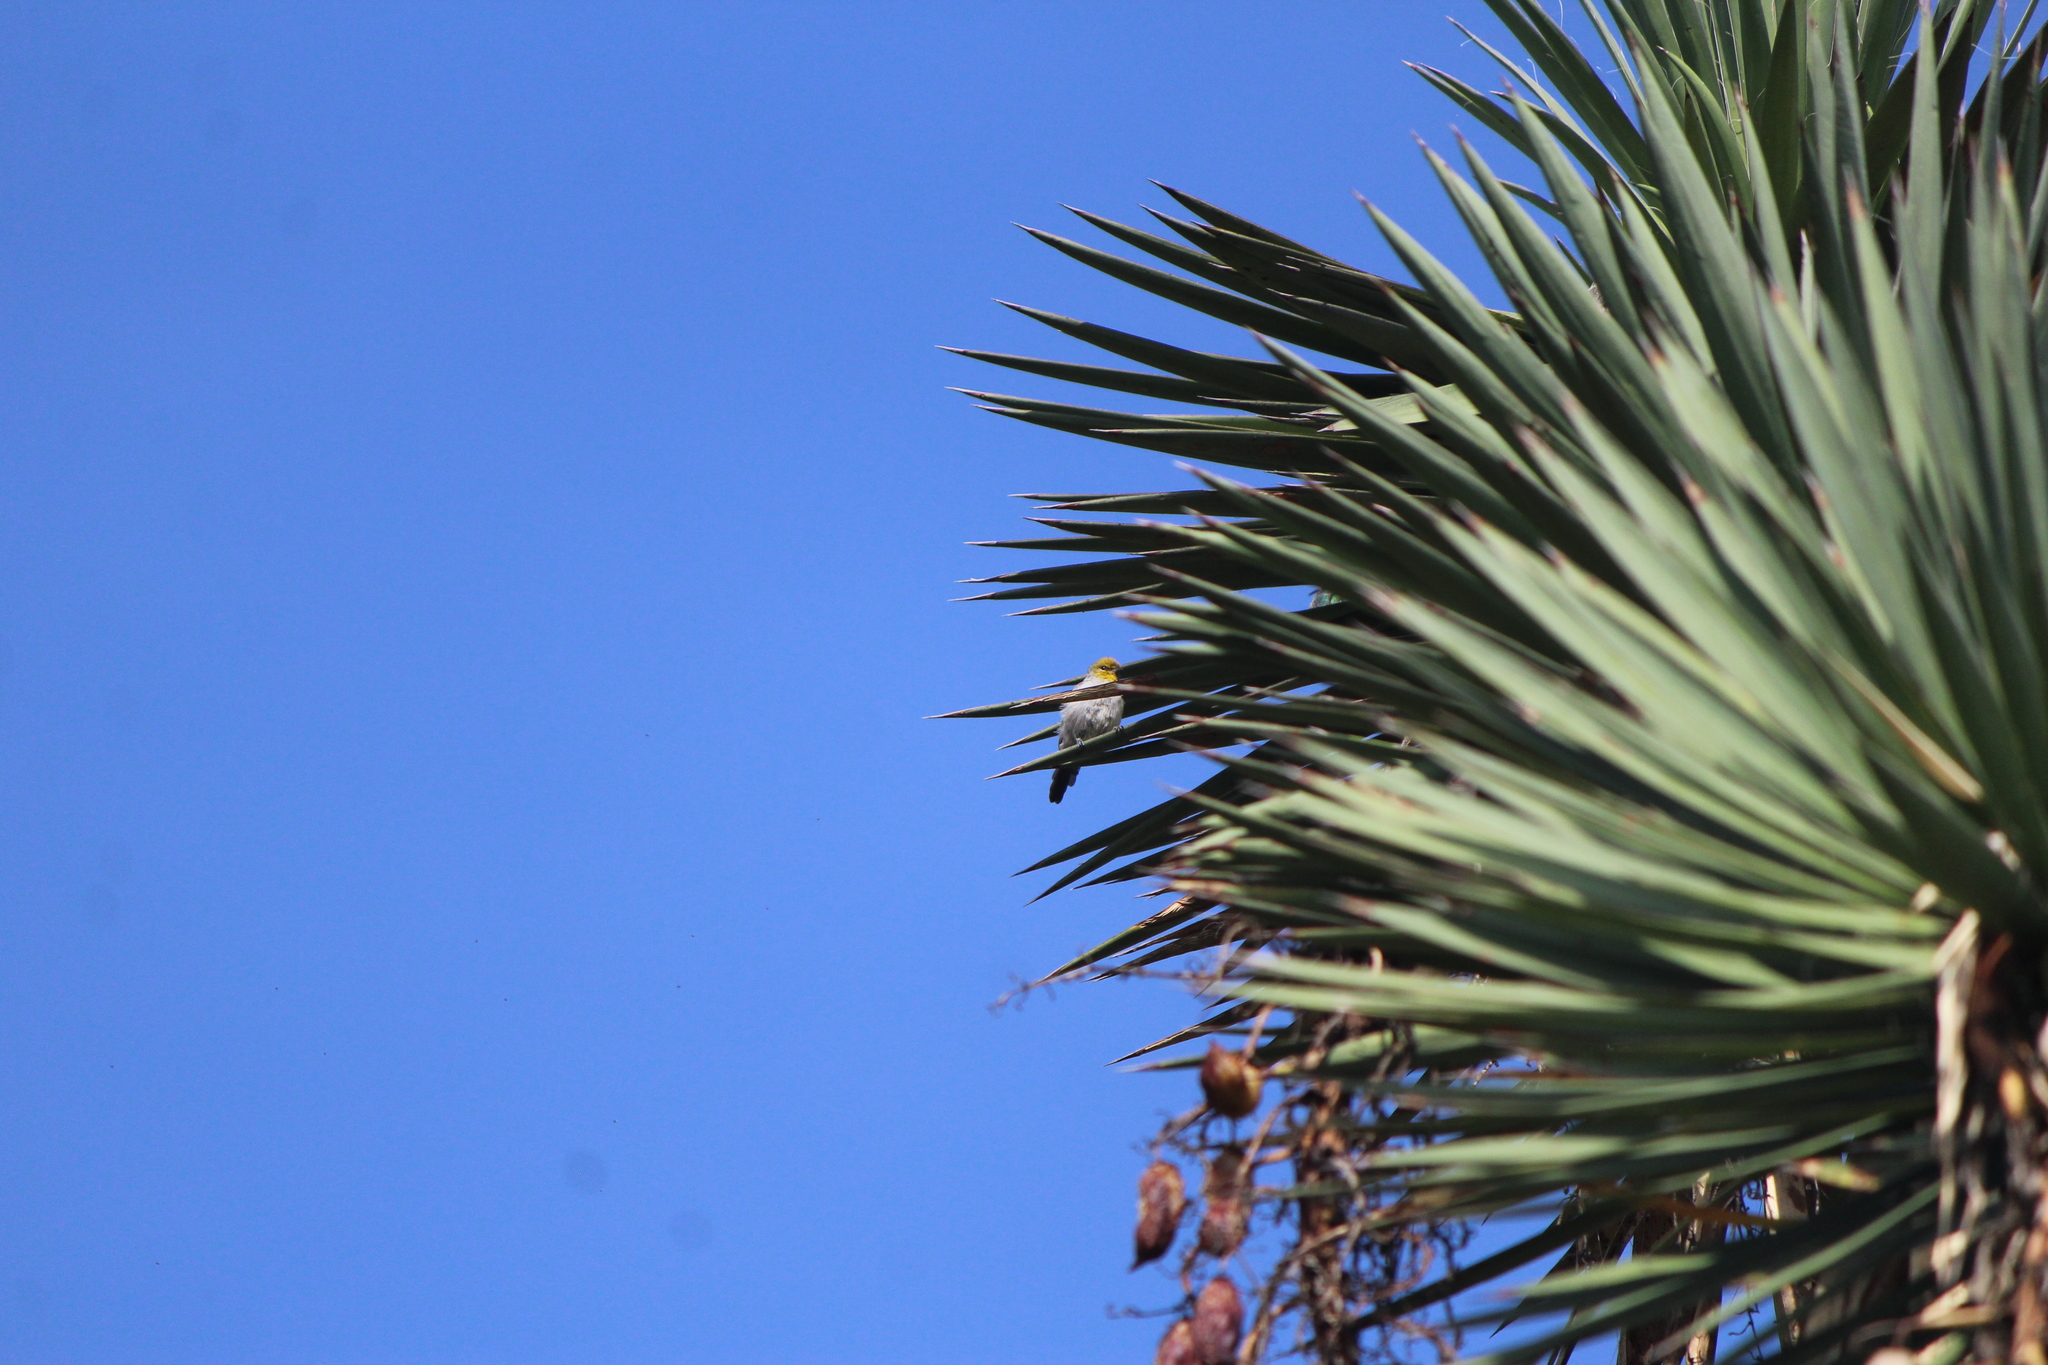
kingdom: Animalia
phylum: Chordata
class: Aves
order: Passeriformes
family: Remizidae
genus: Auriparus
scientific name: Auriparus flaviceps
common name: Verdin
